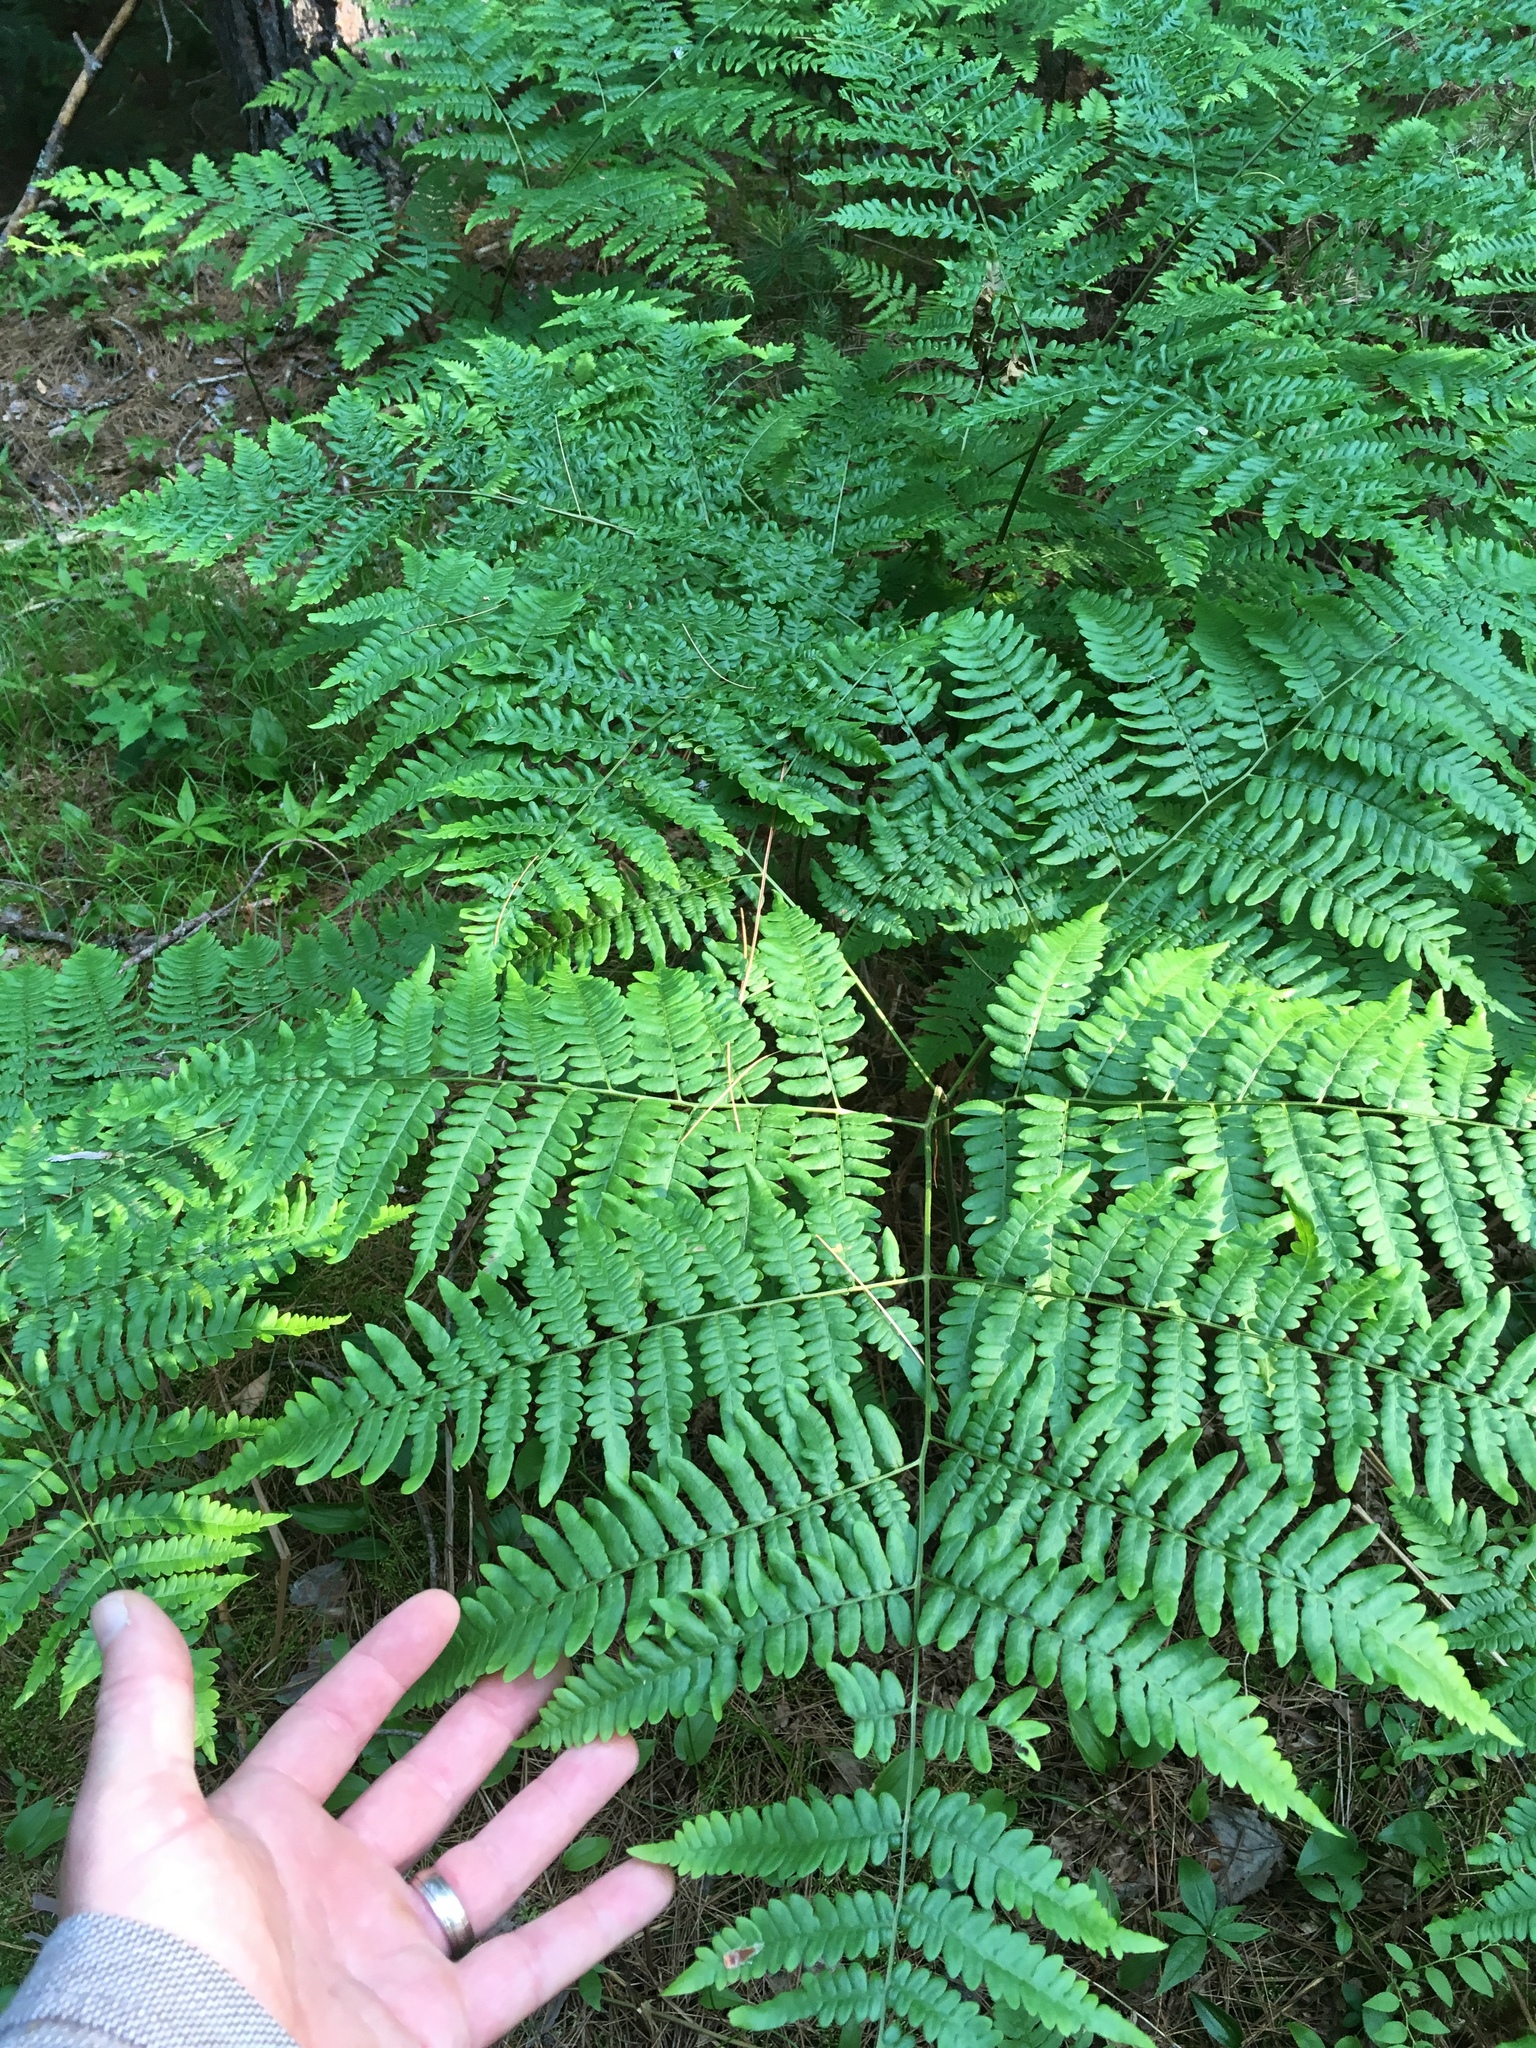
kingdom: Plantae
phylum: Tracheophyta
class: Polypodiopsida
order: Polypodiales
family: Dennstaedtiaceae
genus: Pteridium
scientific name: Pteridium aquilinum
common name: Bracken
